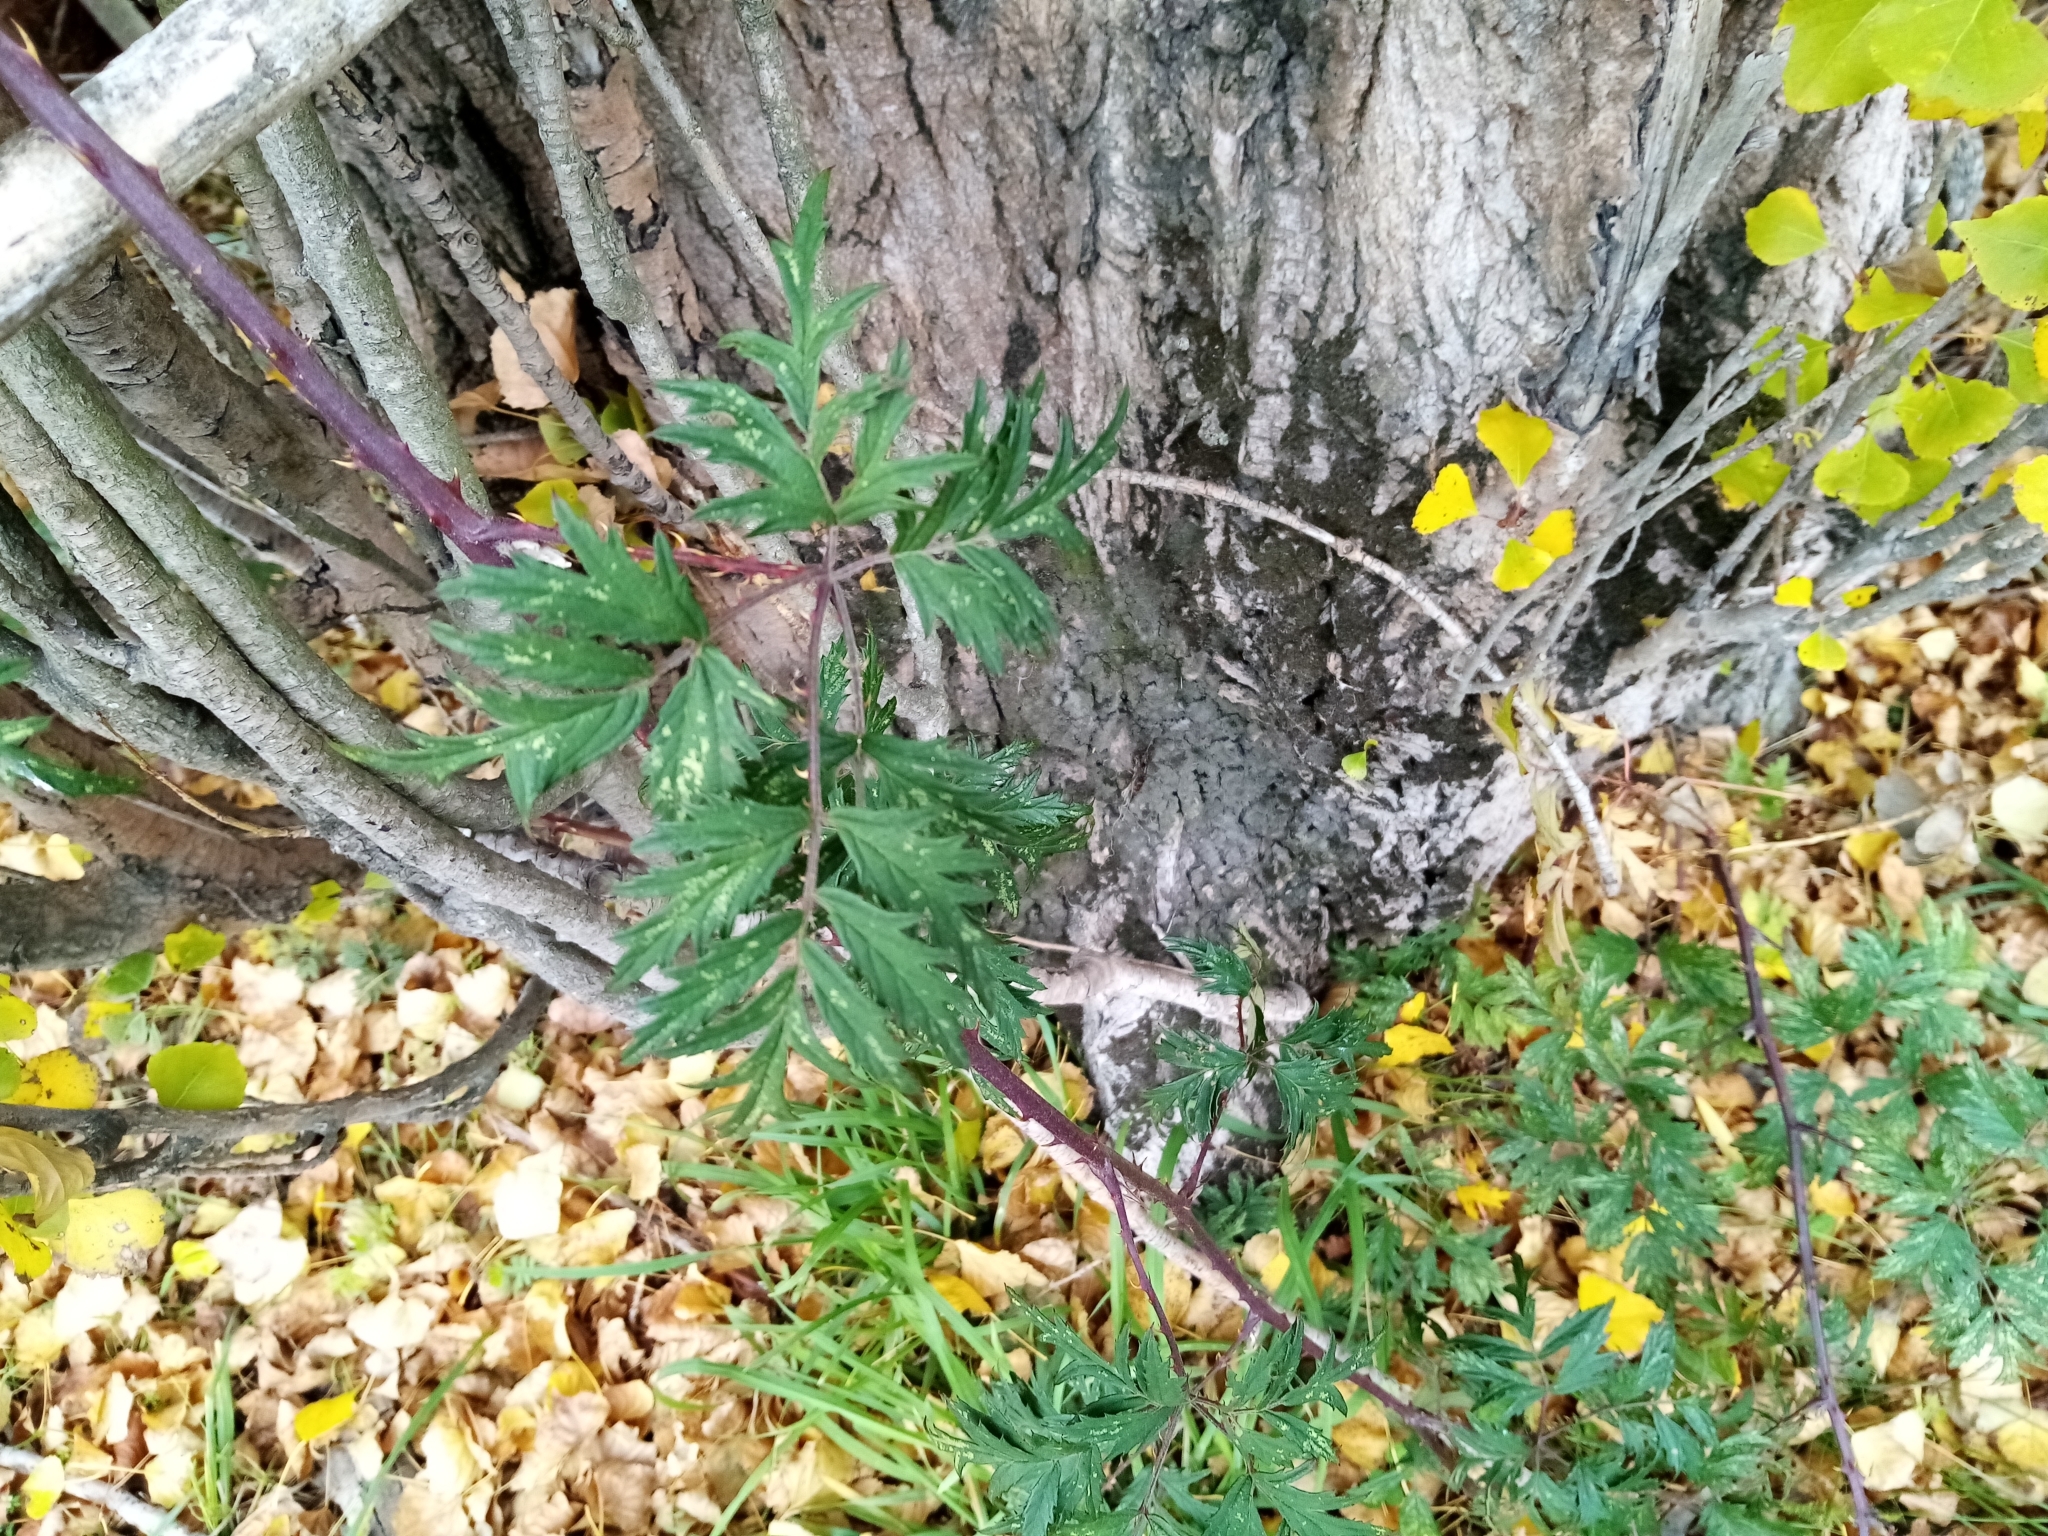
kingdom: Plantae
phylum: Tracheophyta
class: Magnoliopsida
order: Rosales
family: Rosaceae
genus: Rubus
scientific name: Rubus laciniatus
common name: Evergreen blackberry
